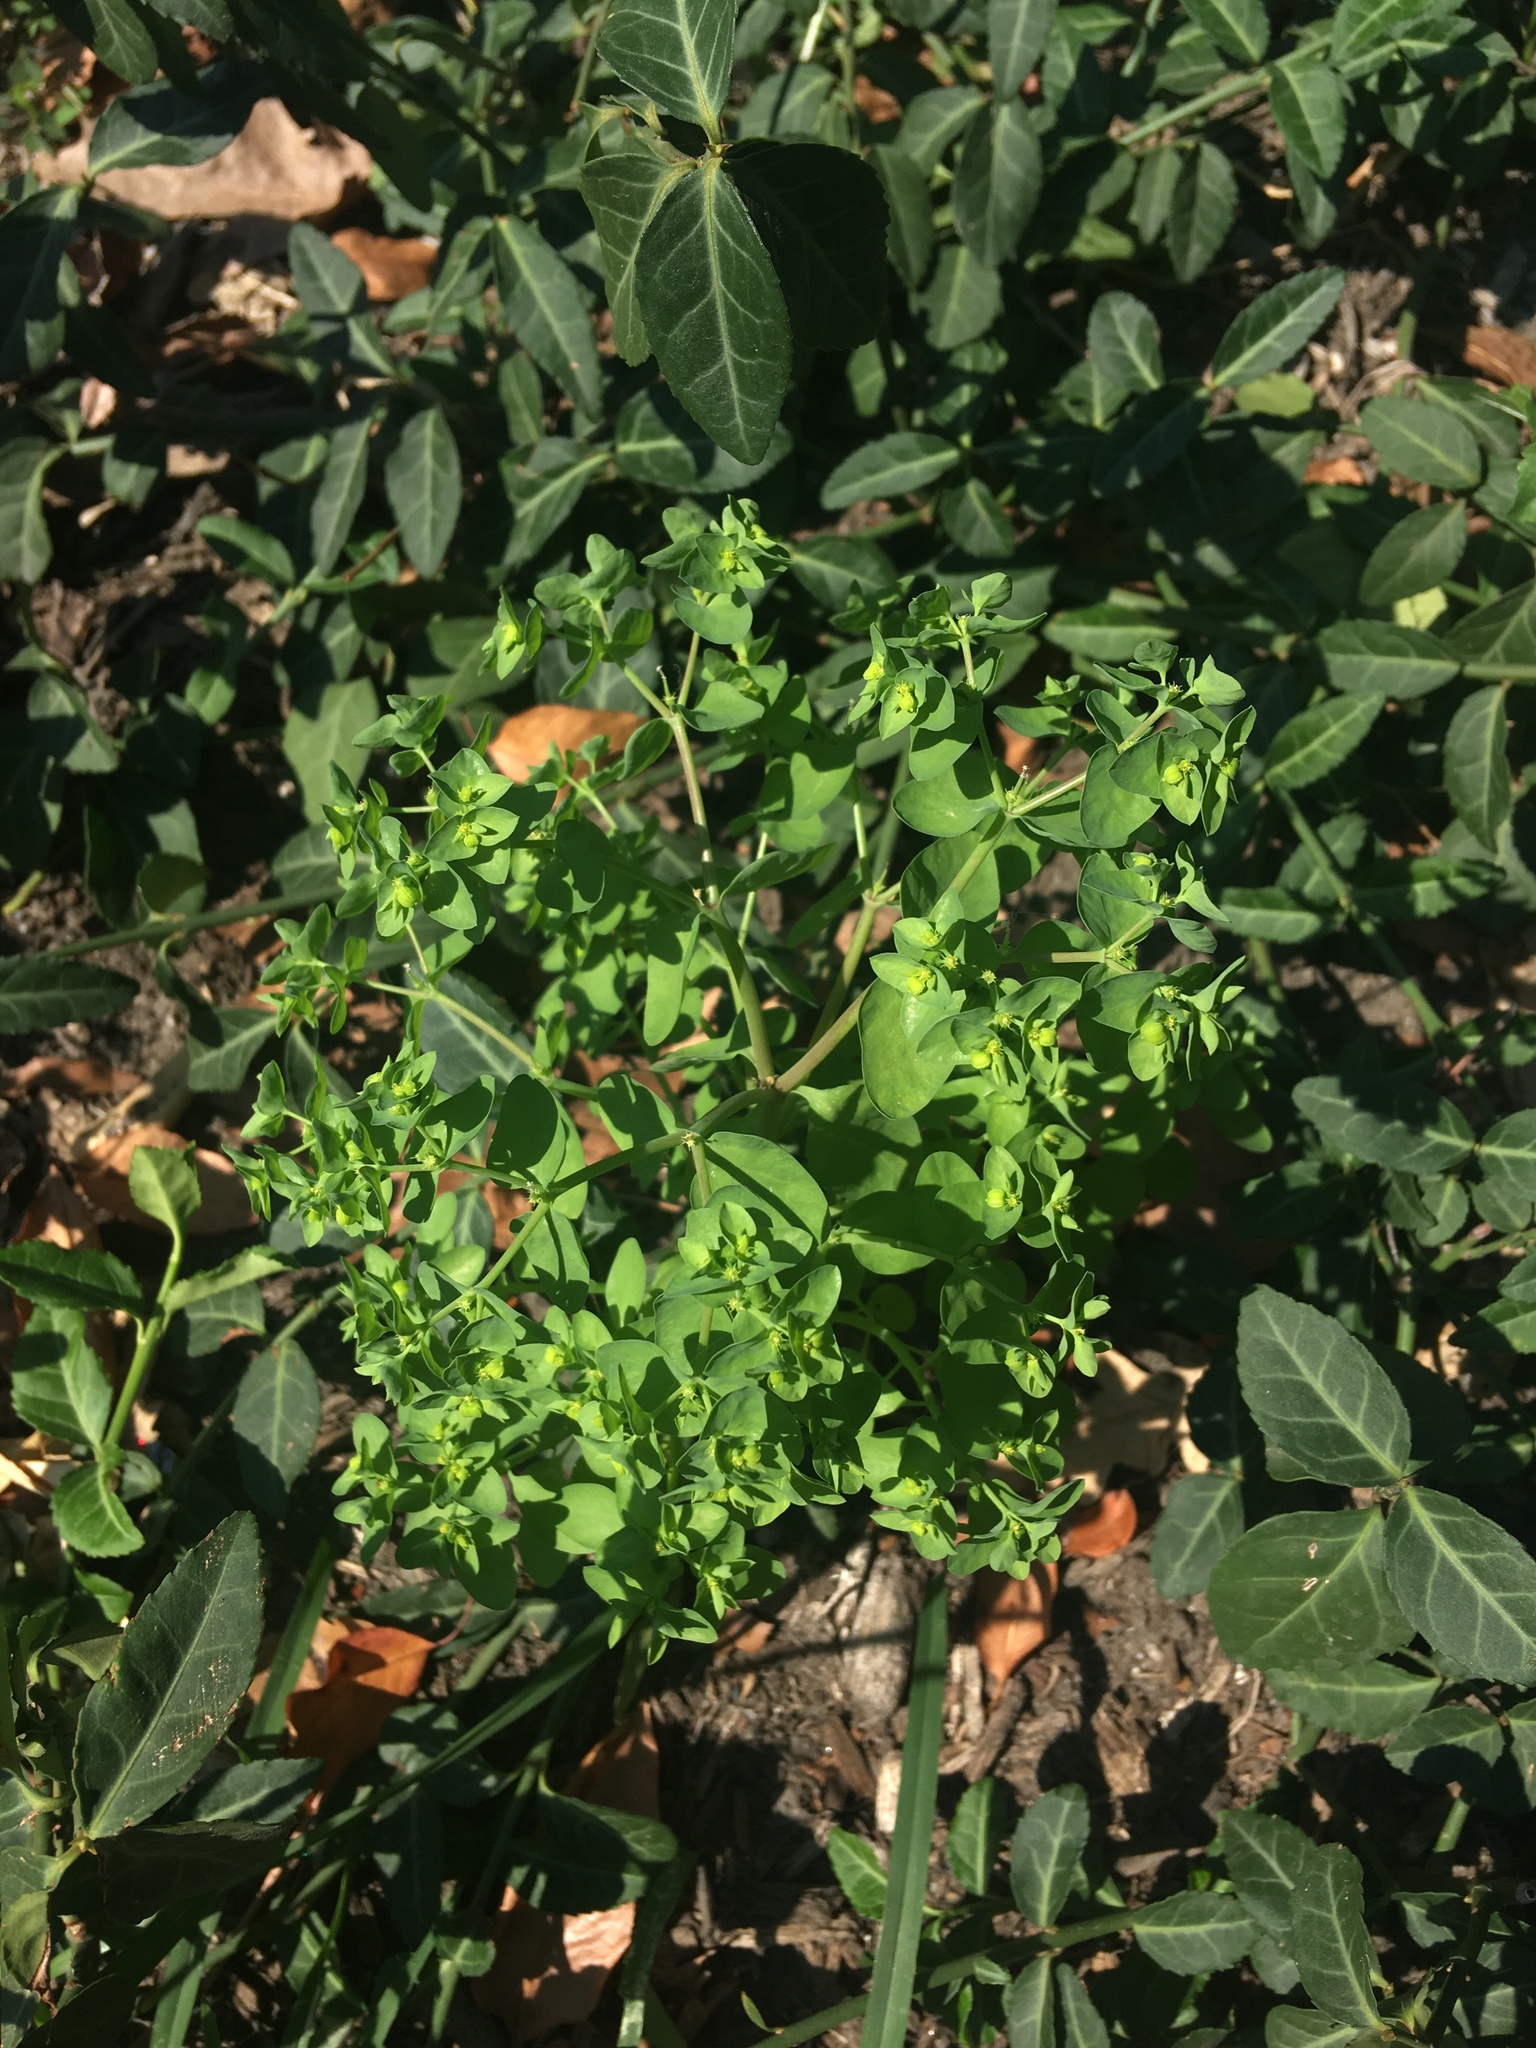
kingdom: Plantae
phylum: Tracheophyta
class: Magnoliopsida
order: Malpighiales
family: Euphorbiaceae
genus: Euphorbia
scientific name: Euphorbia peplus
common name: Petty spurge
